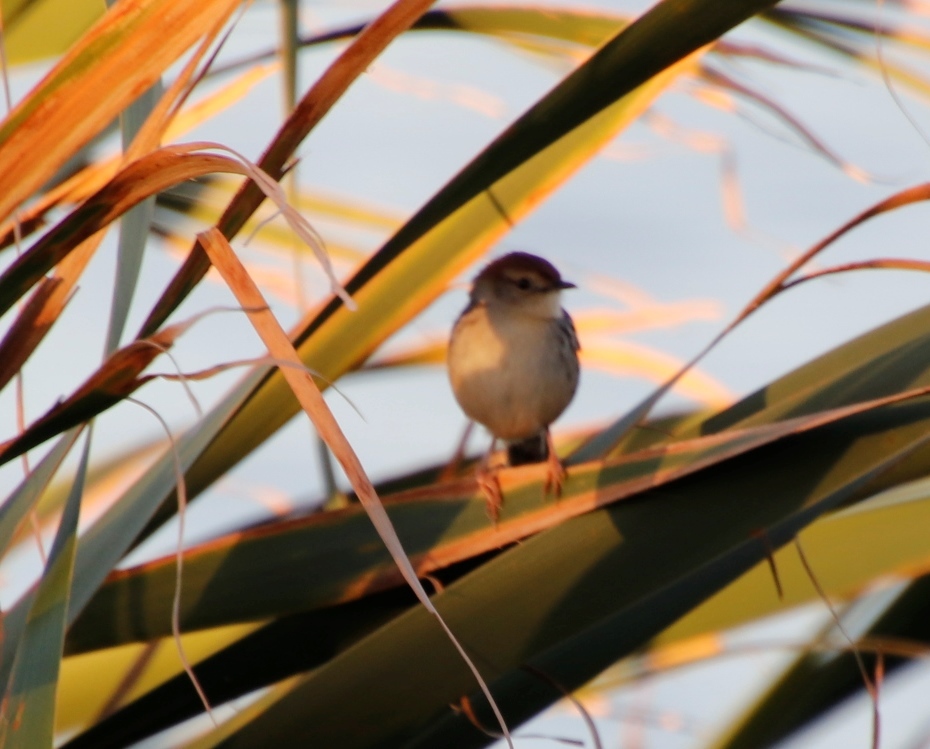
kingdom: Animalia
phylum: Chordata
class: Aves
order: Passeriformes
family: Cisticolidae
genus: Cisticola
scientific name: Cisticola tinniens
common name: Levaillant's cisticola
